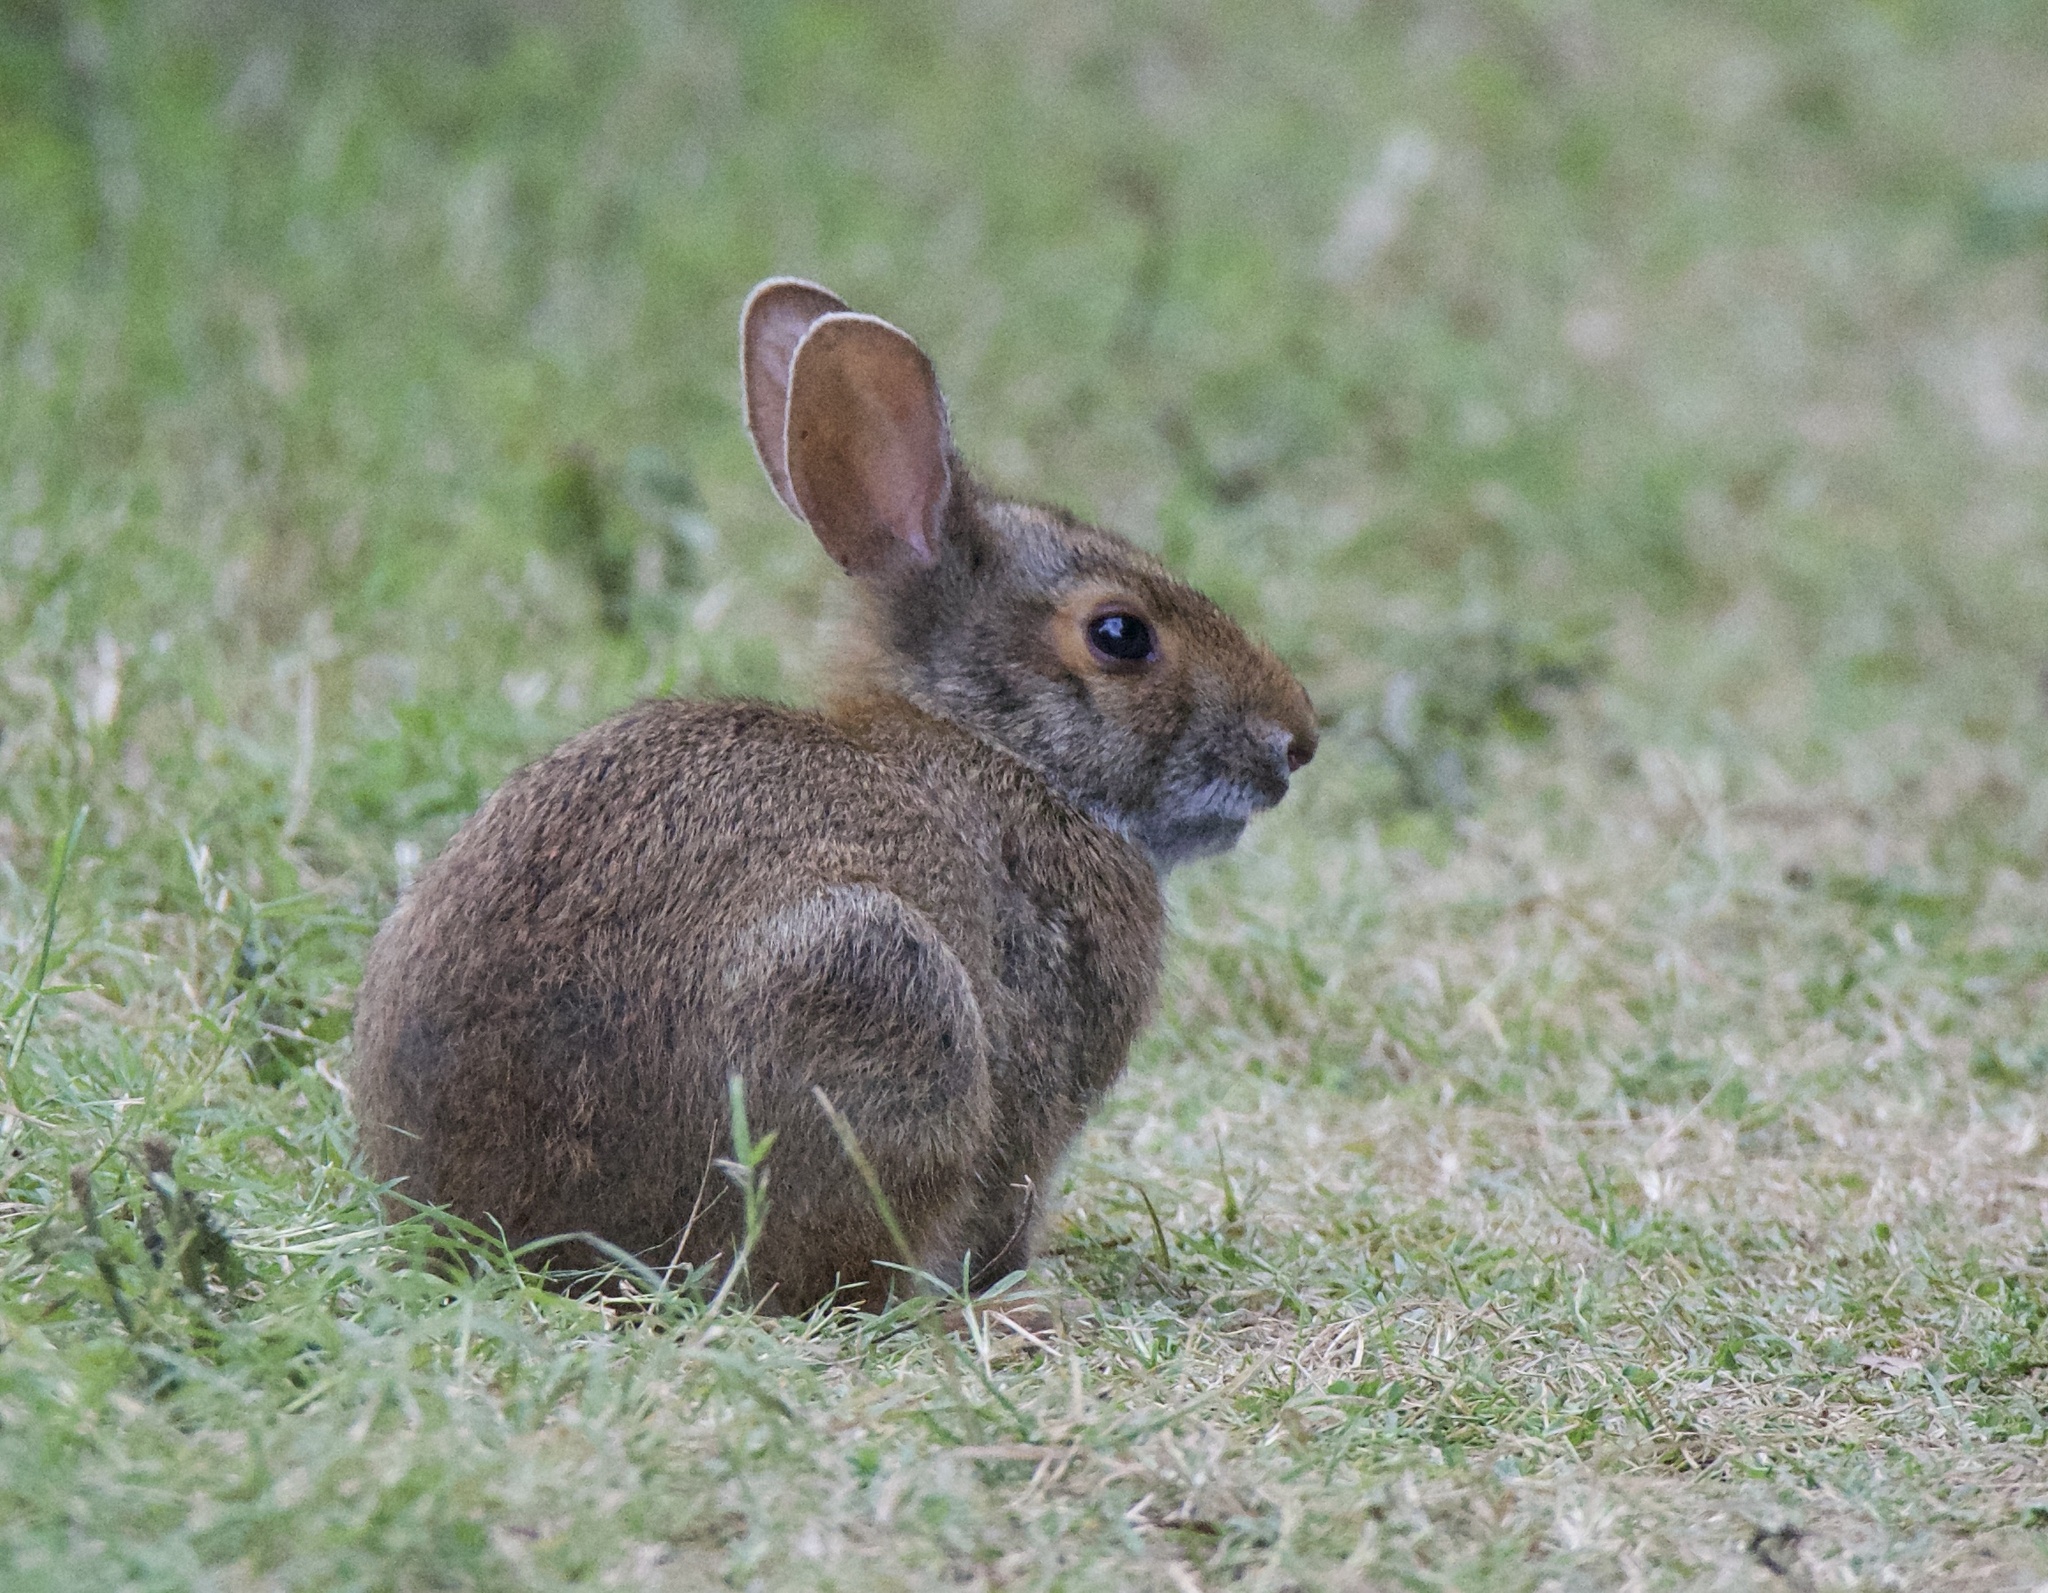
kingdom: Animalia
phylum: Chordata
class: Mammalia
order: Lagomorpha
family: Leporidae
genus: Sylvilagus
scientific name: Sylvilagus aquaticus
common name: Swamp rabbit
